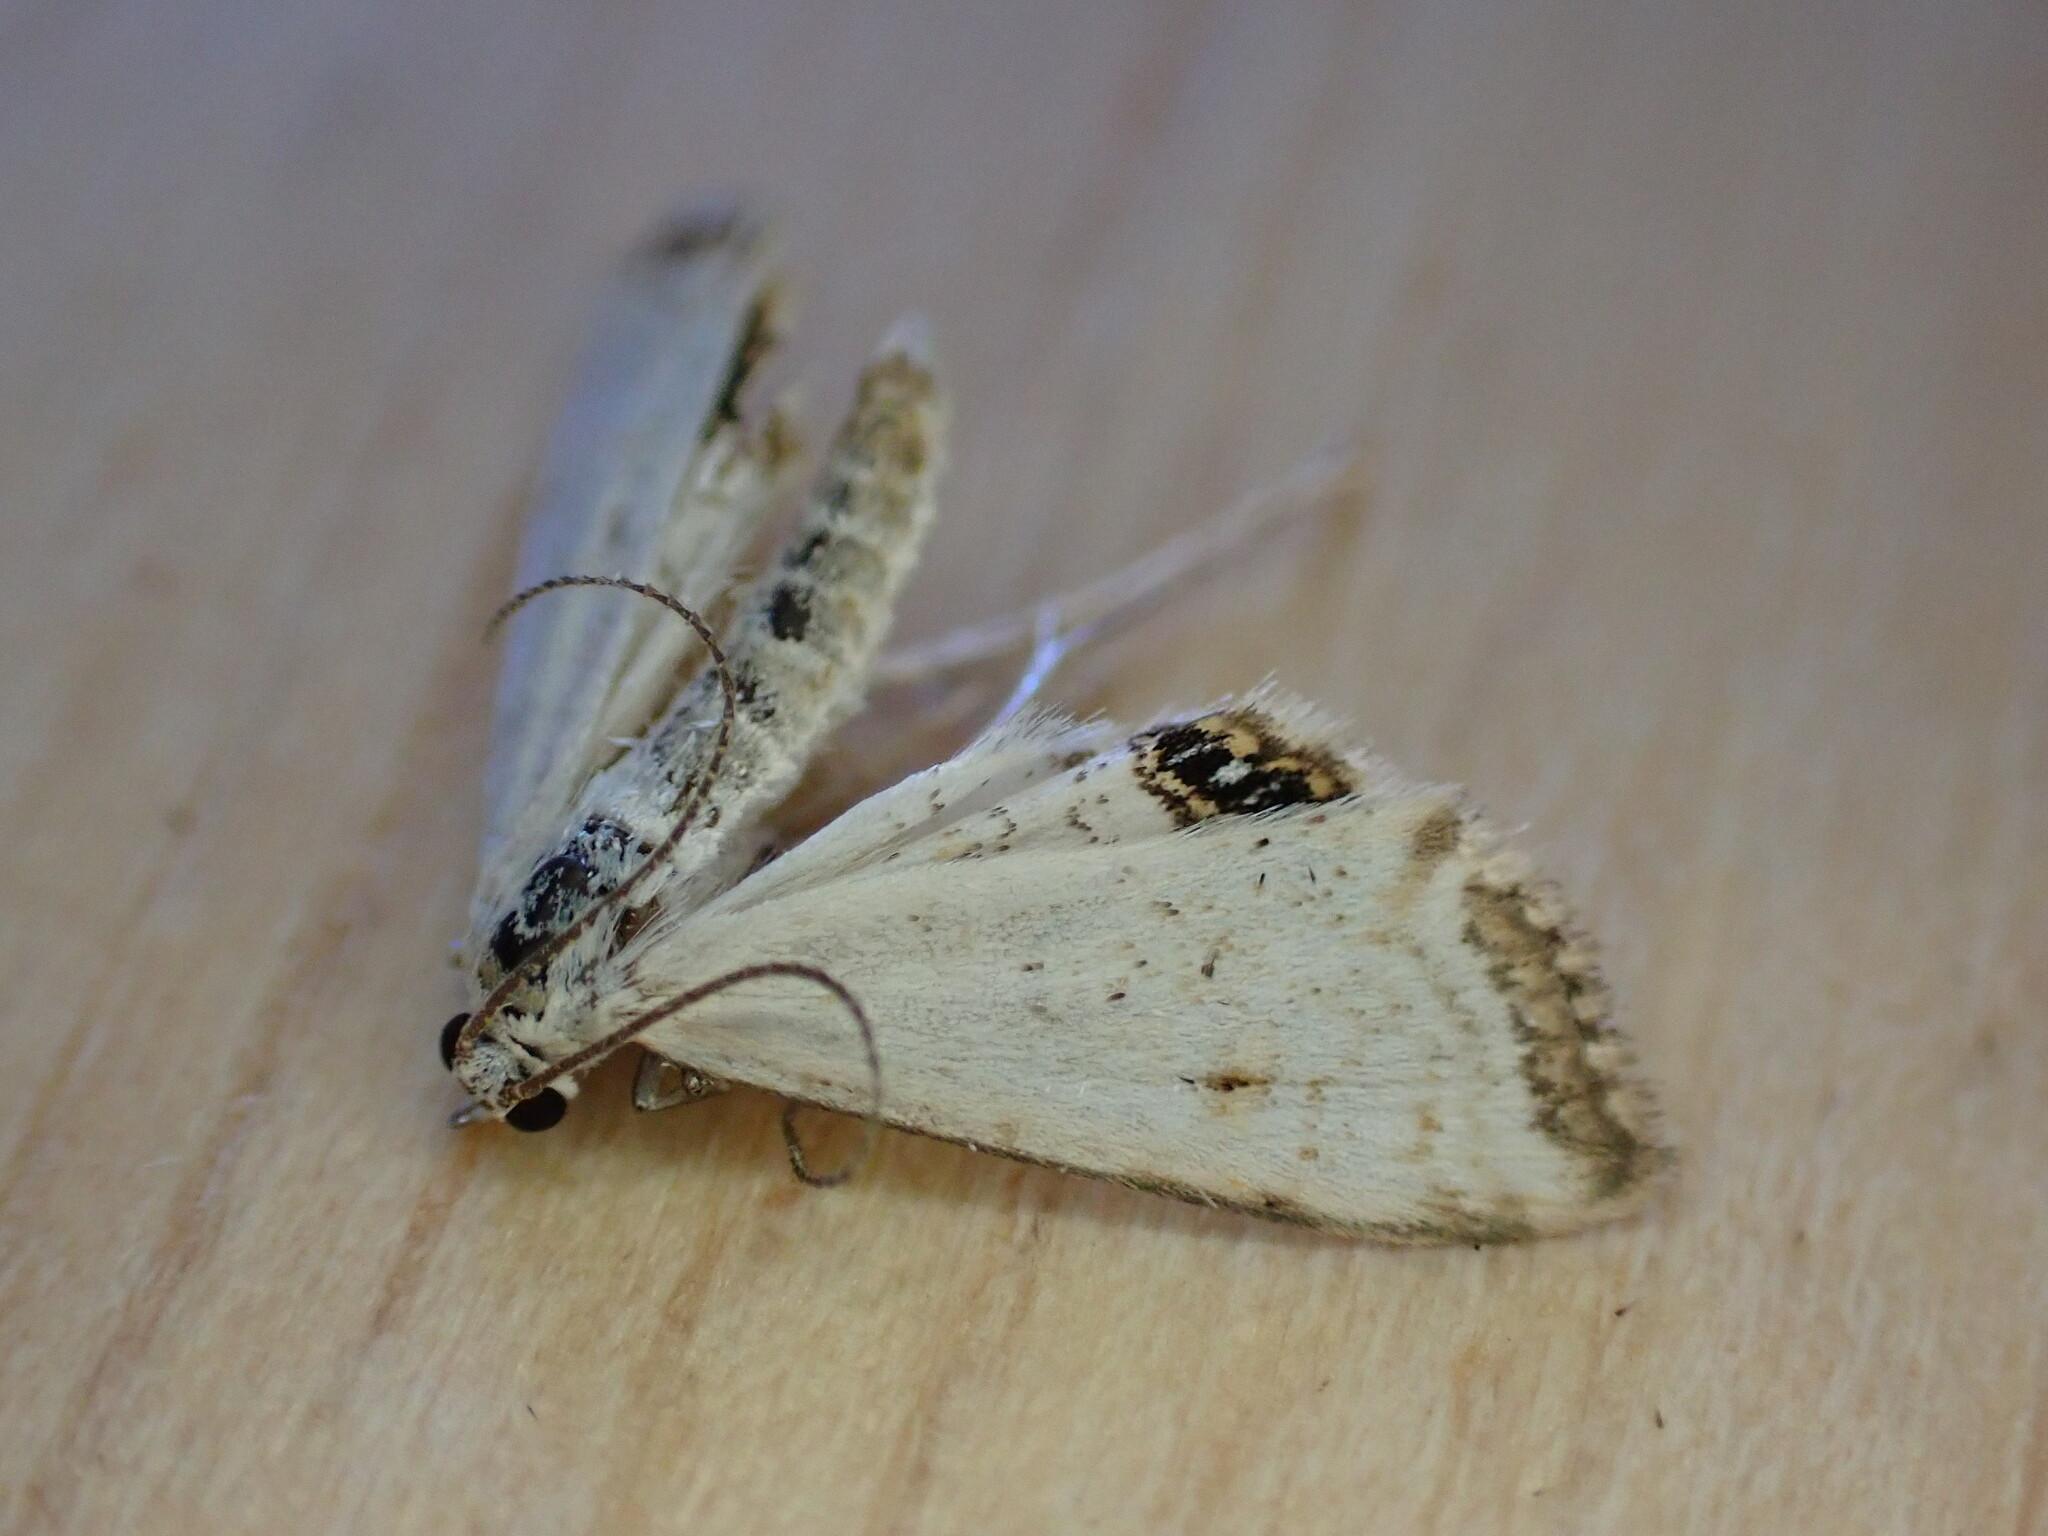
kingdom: Animalia
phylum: Arthropoda
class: Insecta
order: Lepidoptera
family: Crambidae
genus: Cataclysta
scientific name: Cataclysta lemnata
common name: Small china-mark
